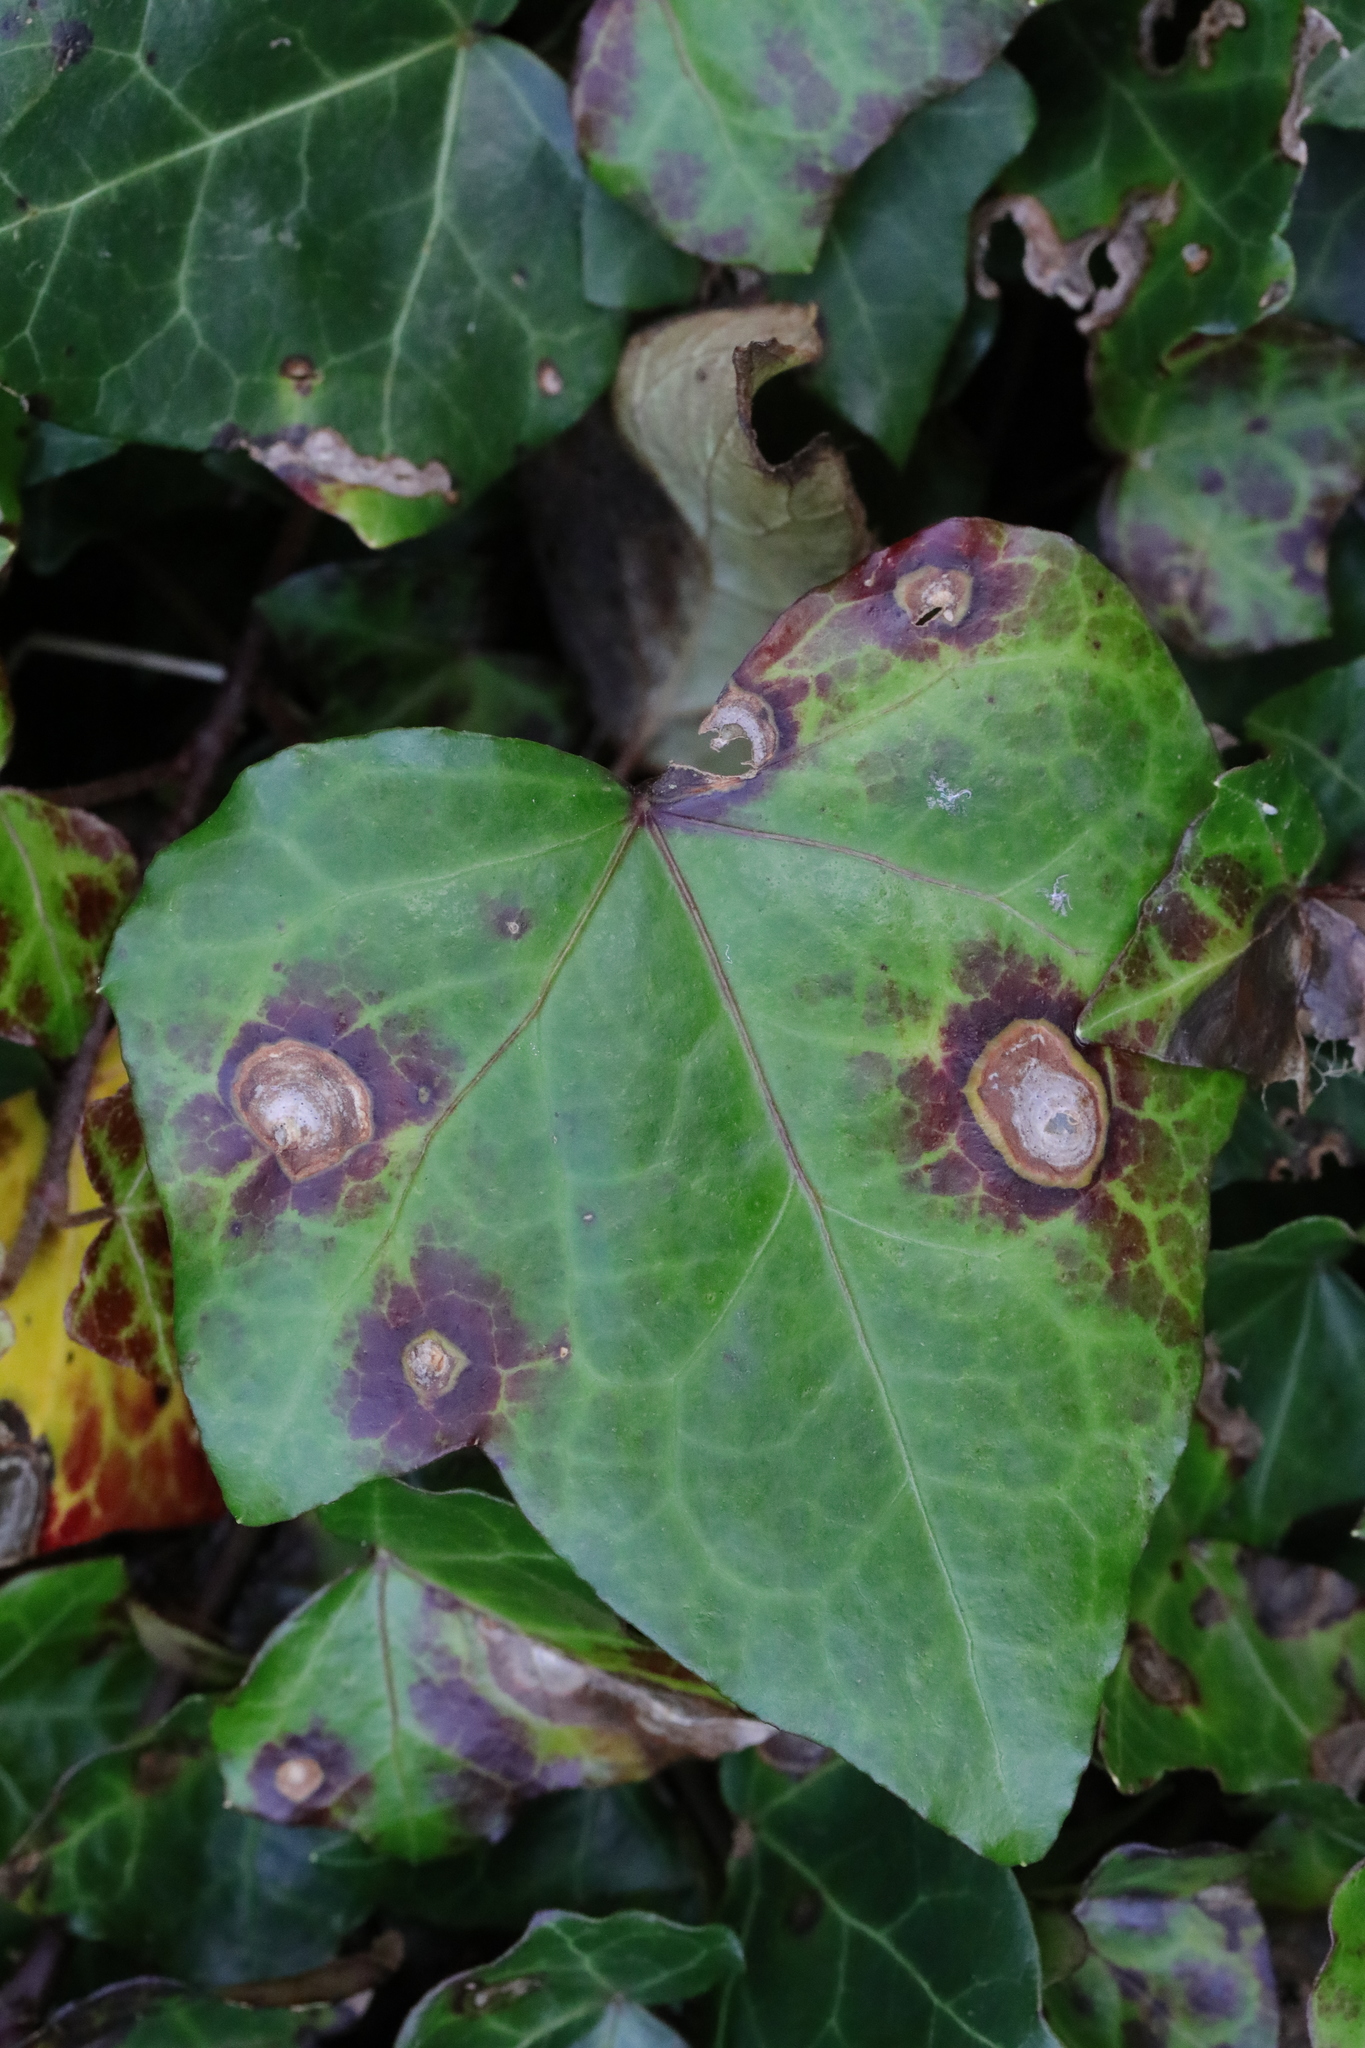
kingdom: Plantae
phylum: Tracheophyta
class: Magnoliopsida
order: Apiales
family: Araliaceae
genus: Hedera
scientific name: Hedera helix
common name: Ivy
